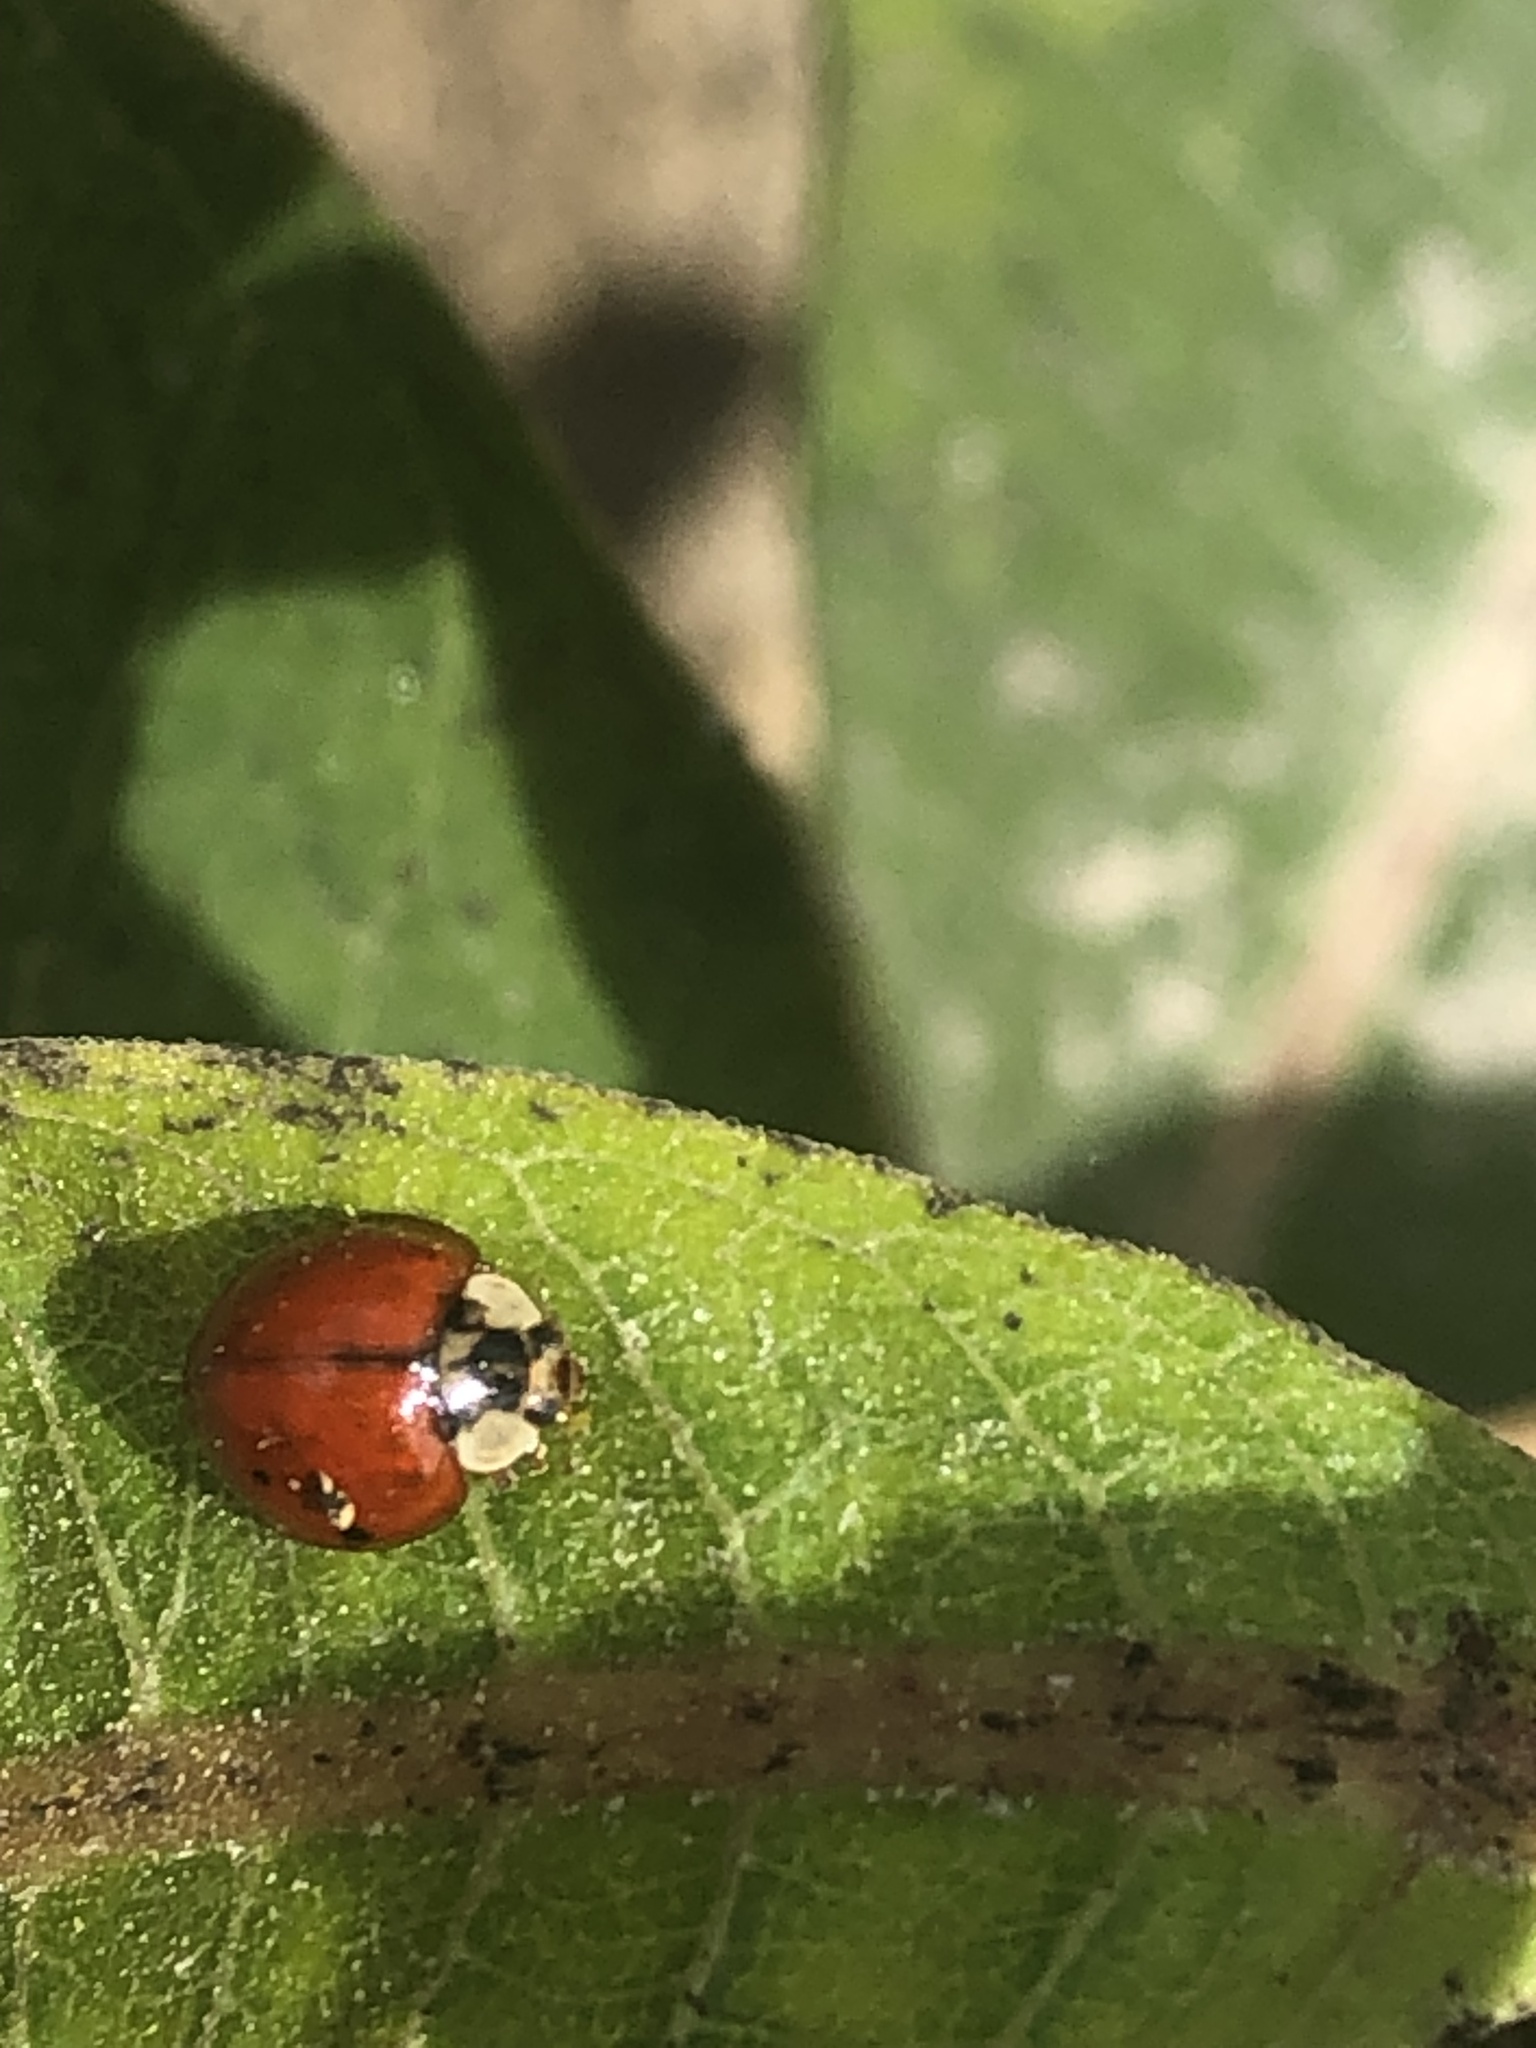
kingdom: Animalia
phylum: Arthropoda
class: Insecta
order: Coleoptera
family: Coccinellidae
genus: Harmonia
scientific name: Harmonia axyridis
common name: Harlequin ladybird
